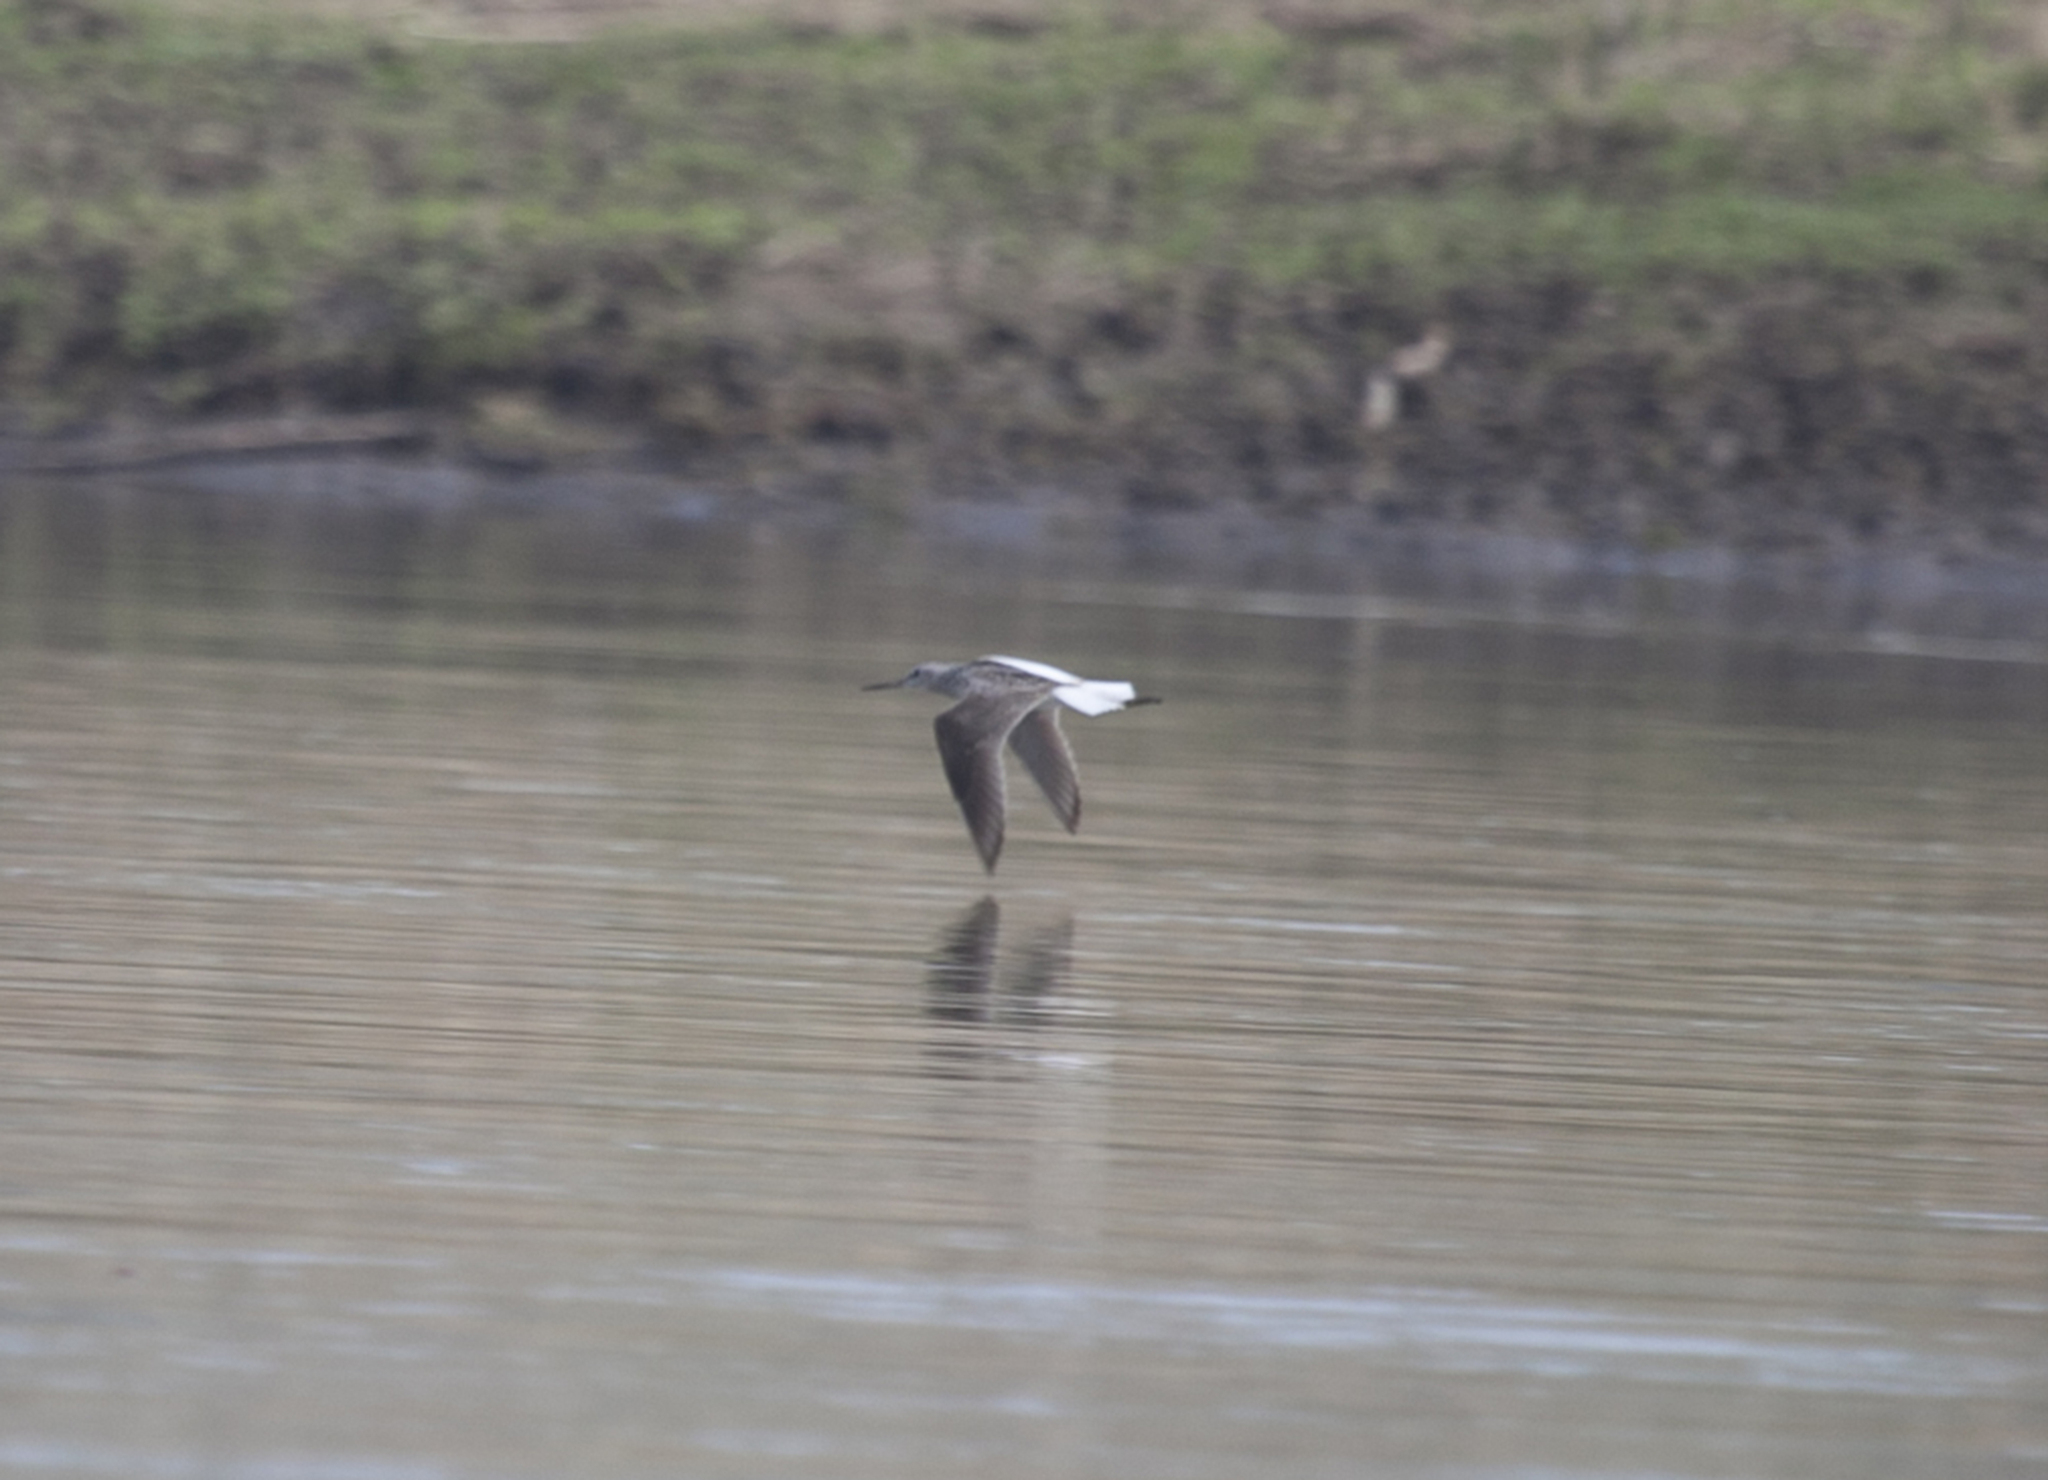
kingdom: Animalia
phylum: Chordata
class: Aves
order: Charadriiformes
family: Scolopacidae
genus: Tringa
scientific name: Tringa nebularia
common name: Common greenshank
